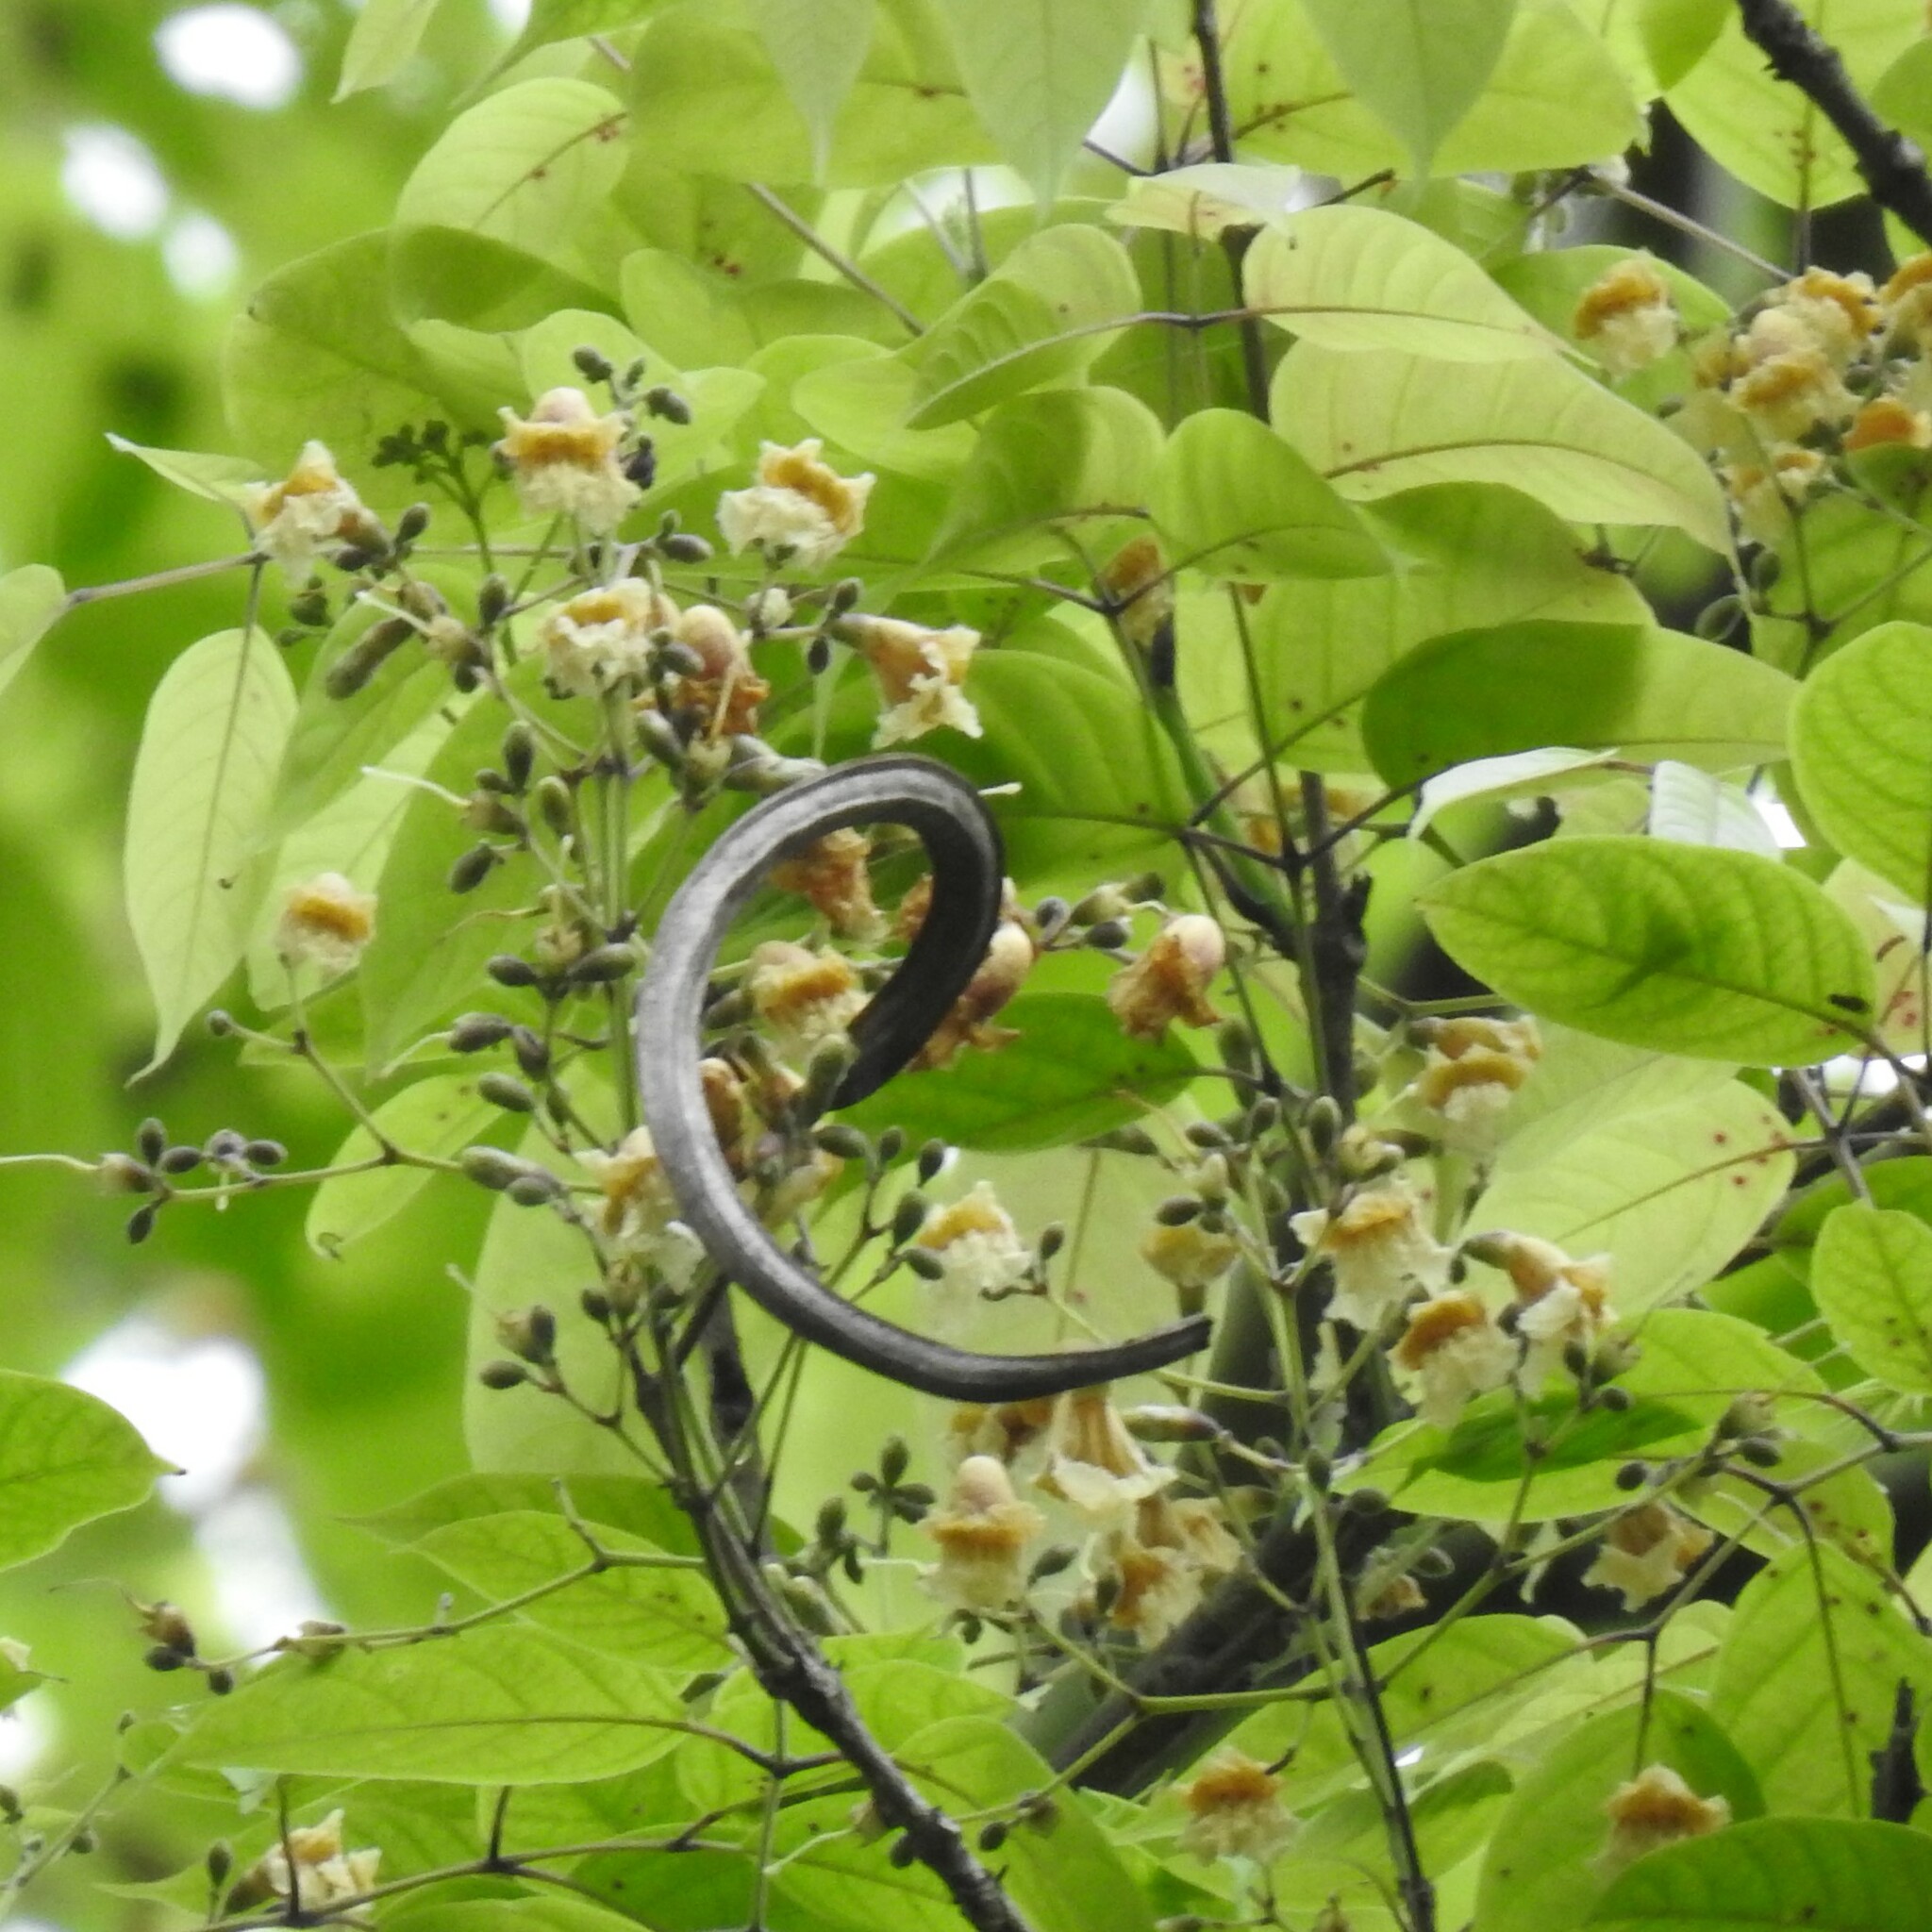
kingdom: Plantae
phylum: Tracheophyta
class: Magnoliopsida
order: Lamiales
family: Bignoniaceae
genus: Stereospermum
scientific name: Stereospermum colais
